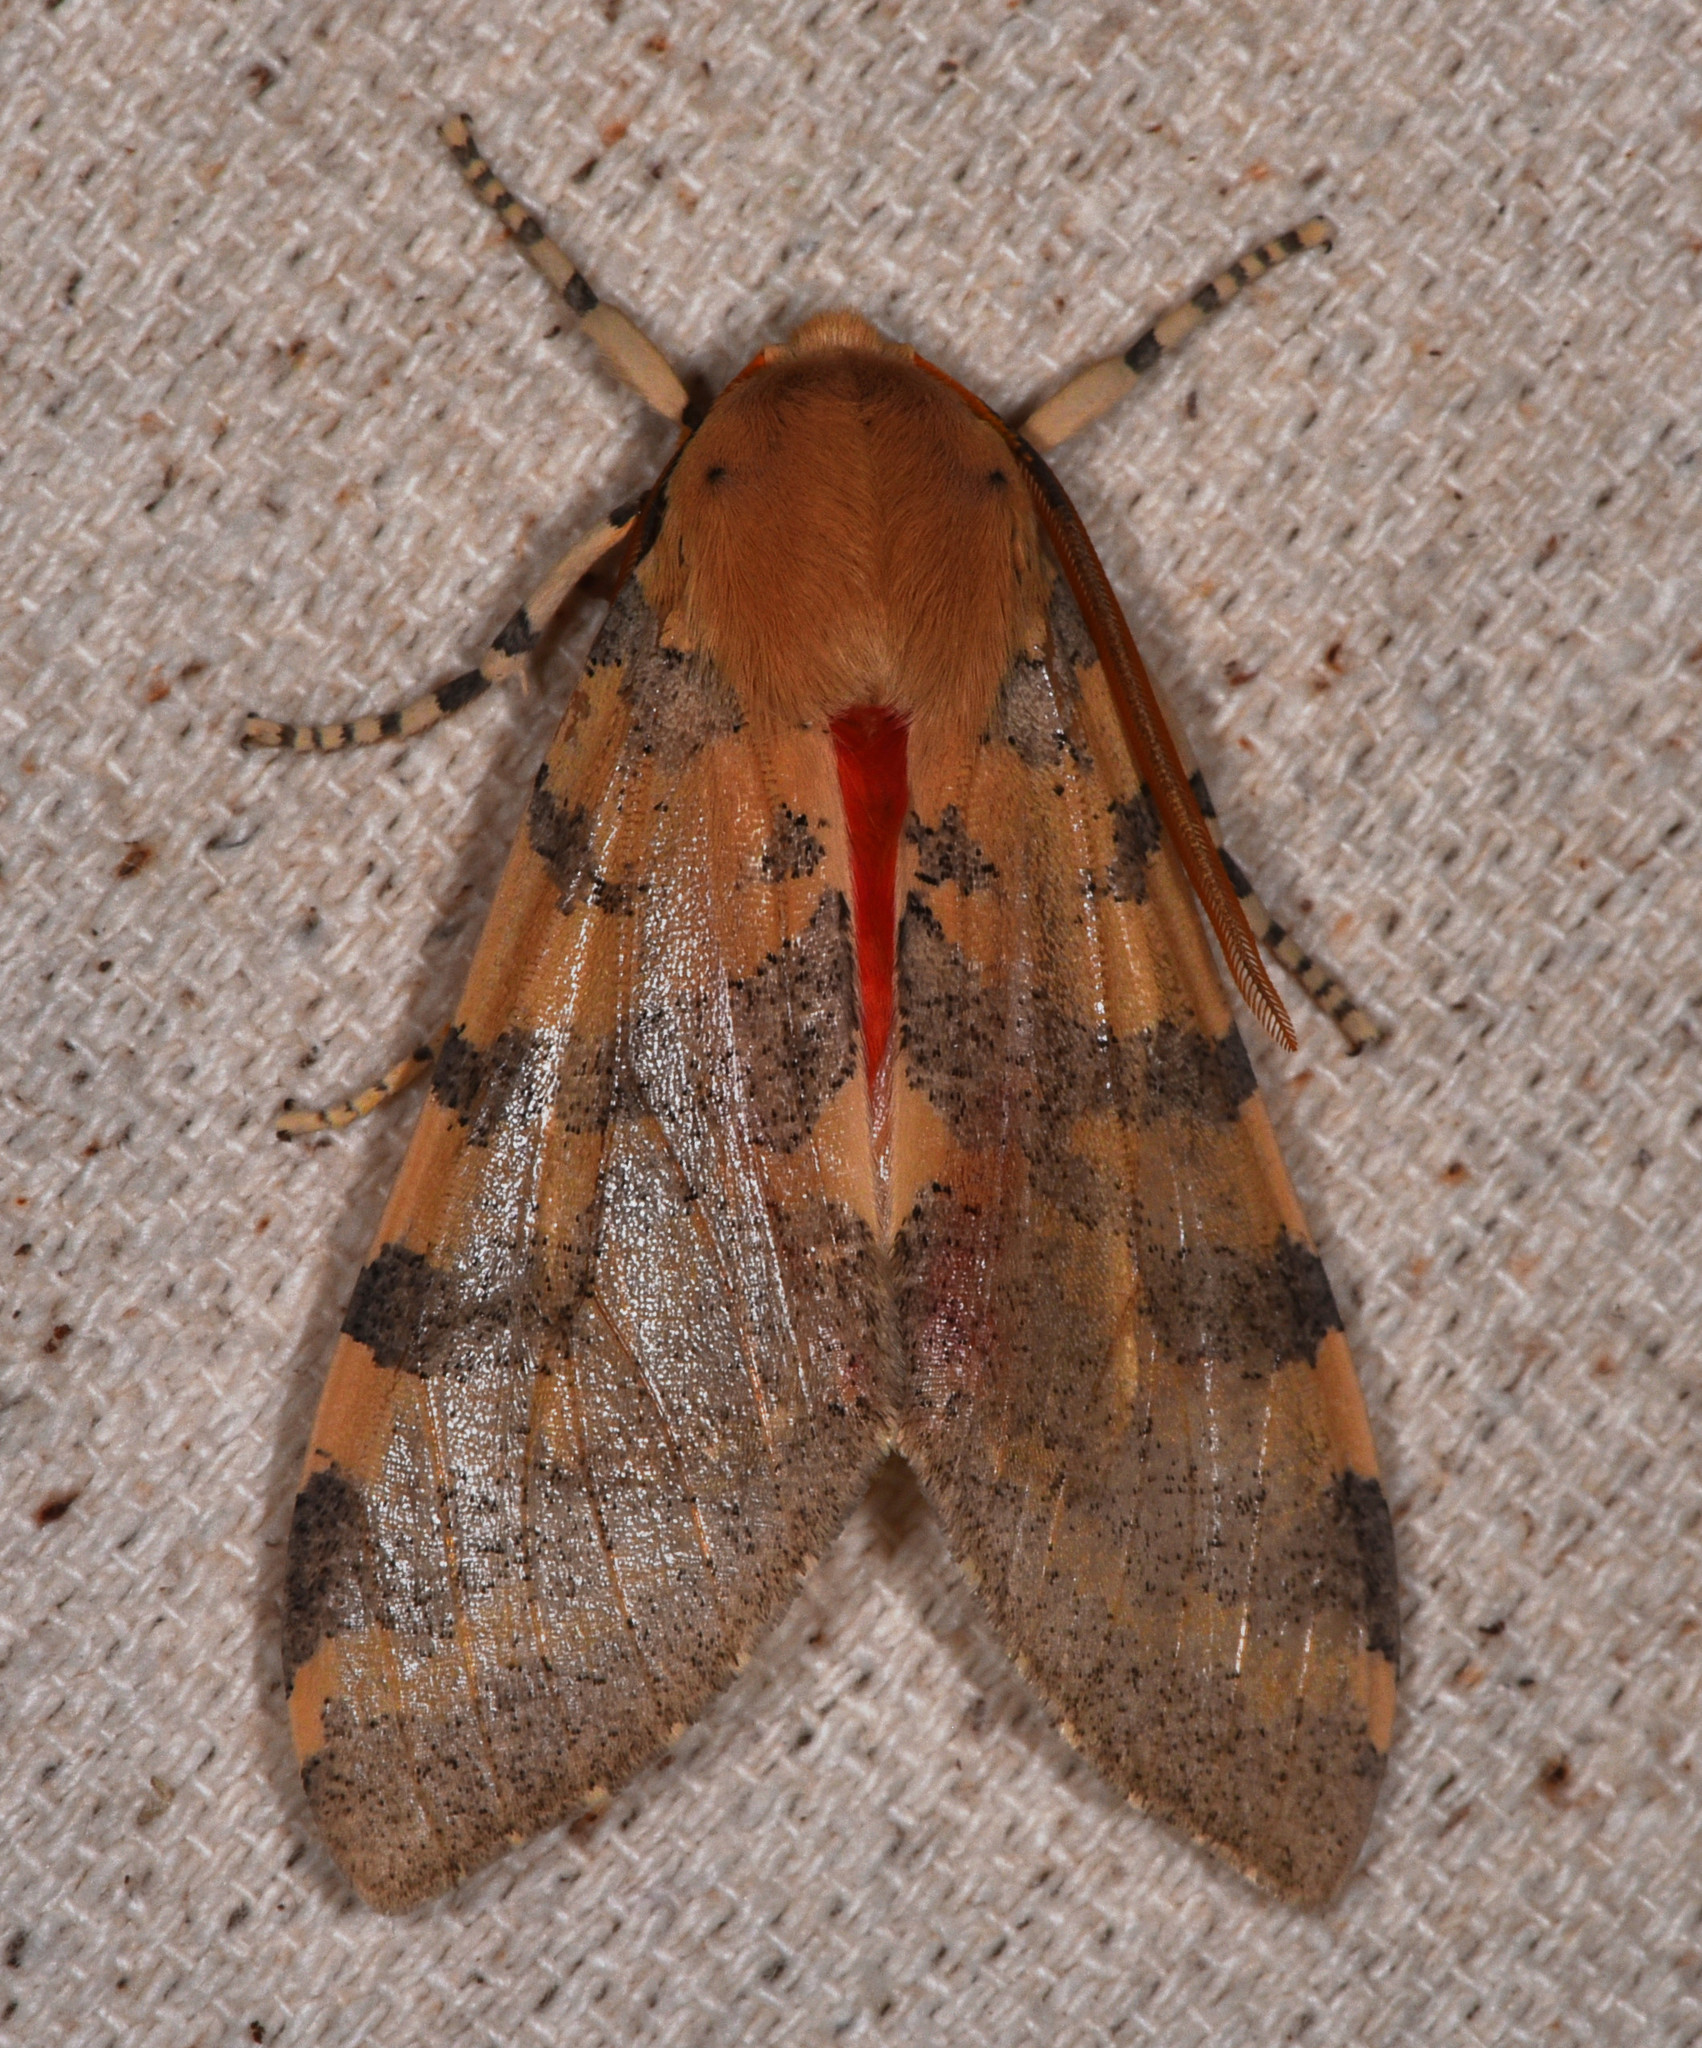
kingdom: Animalia
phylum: Arthropoda
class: Insecta
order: Lepidoptera
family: Erebidae
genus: Hemihyalea
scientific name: Hemihyalea edwardsii
